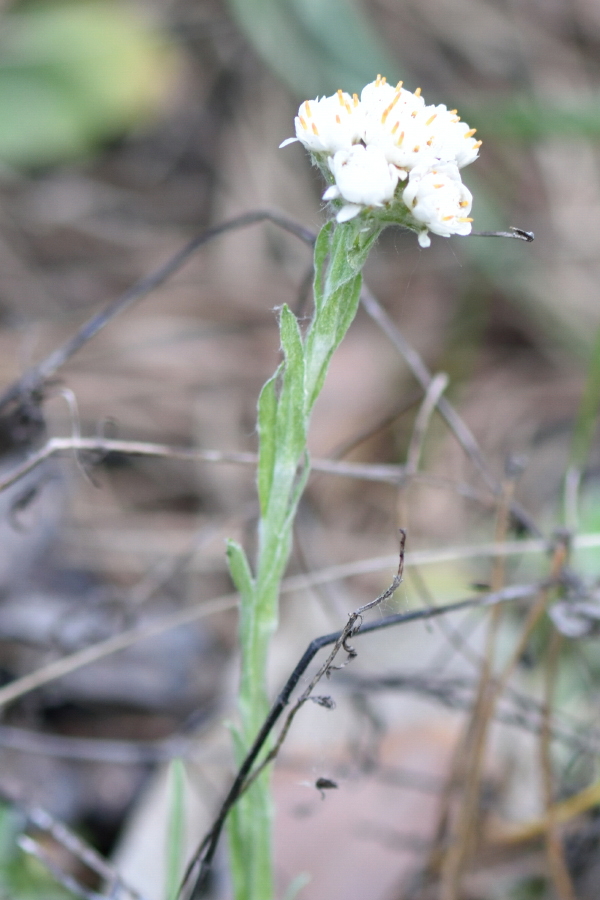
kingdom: Plantae
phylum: Tracheophyta
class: Magnoliopsida
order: Asterales
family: Asteraceae
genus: Antennaria
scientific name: Antennaria dioica
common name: Mountain everlasting
